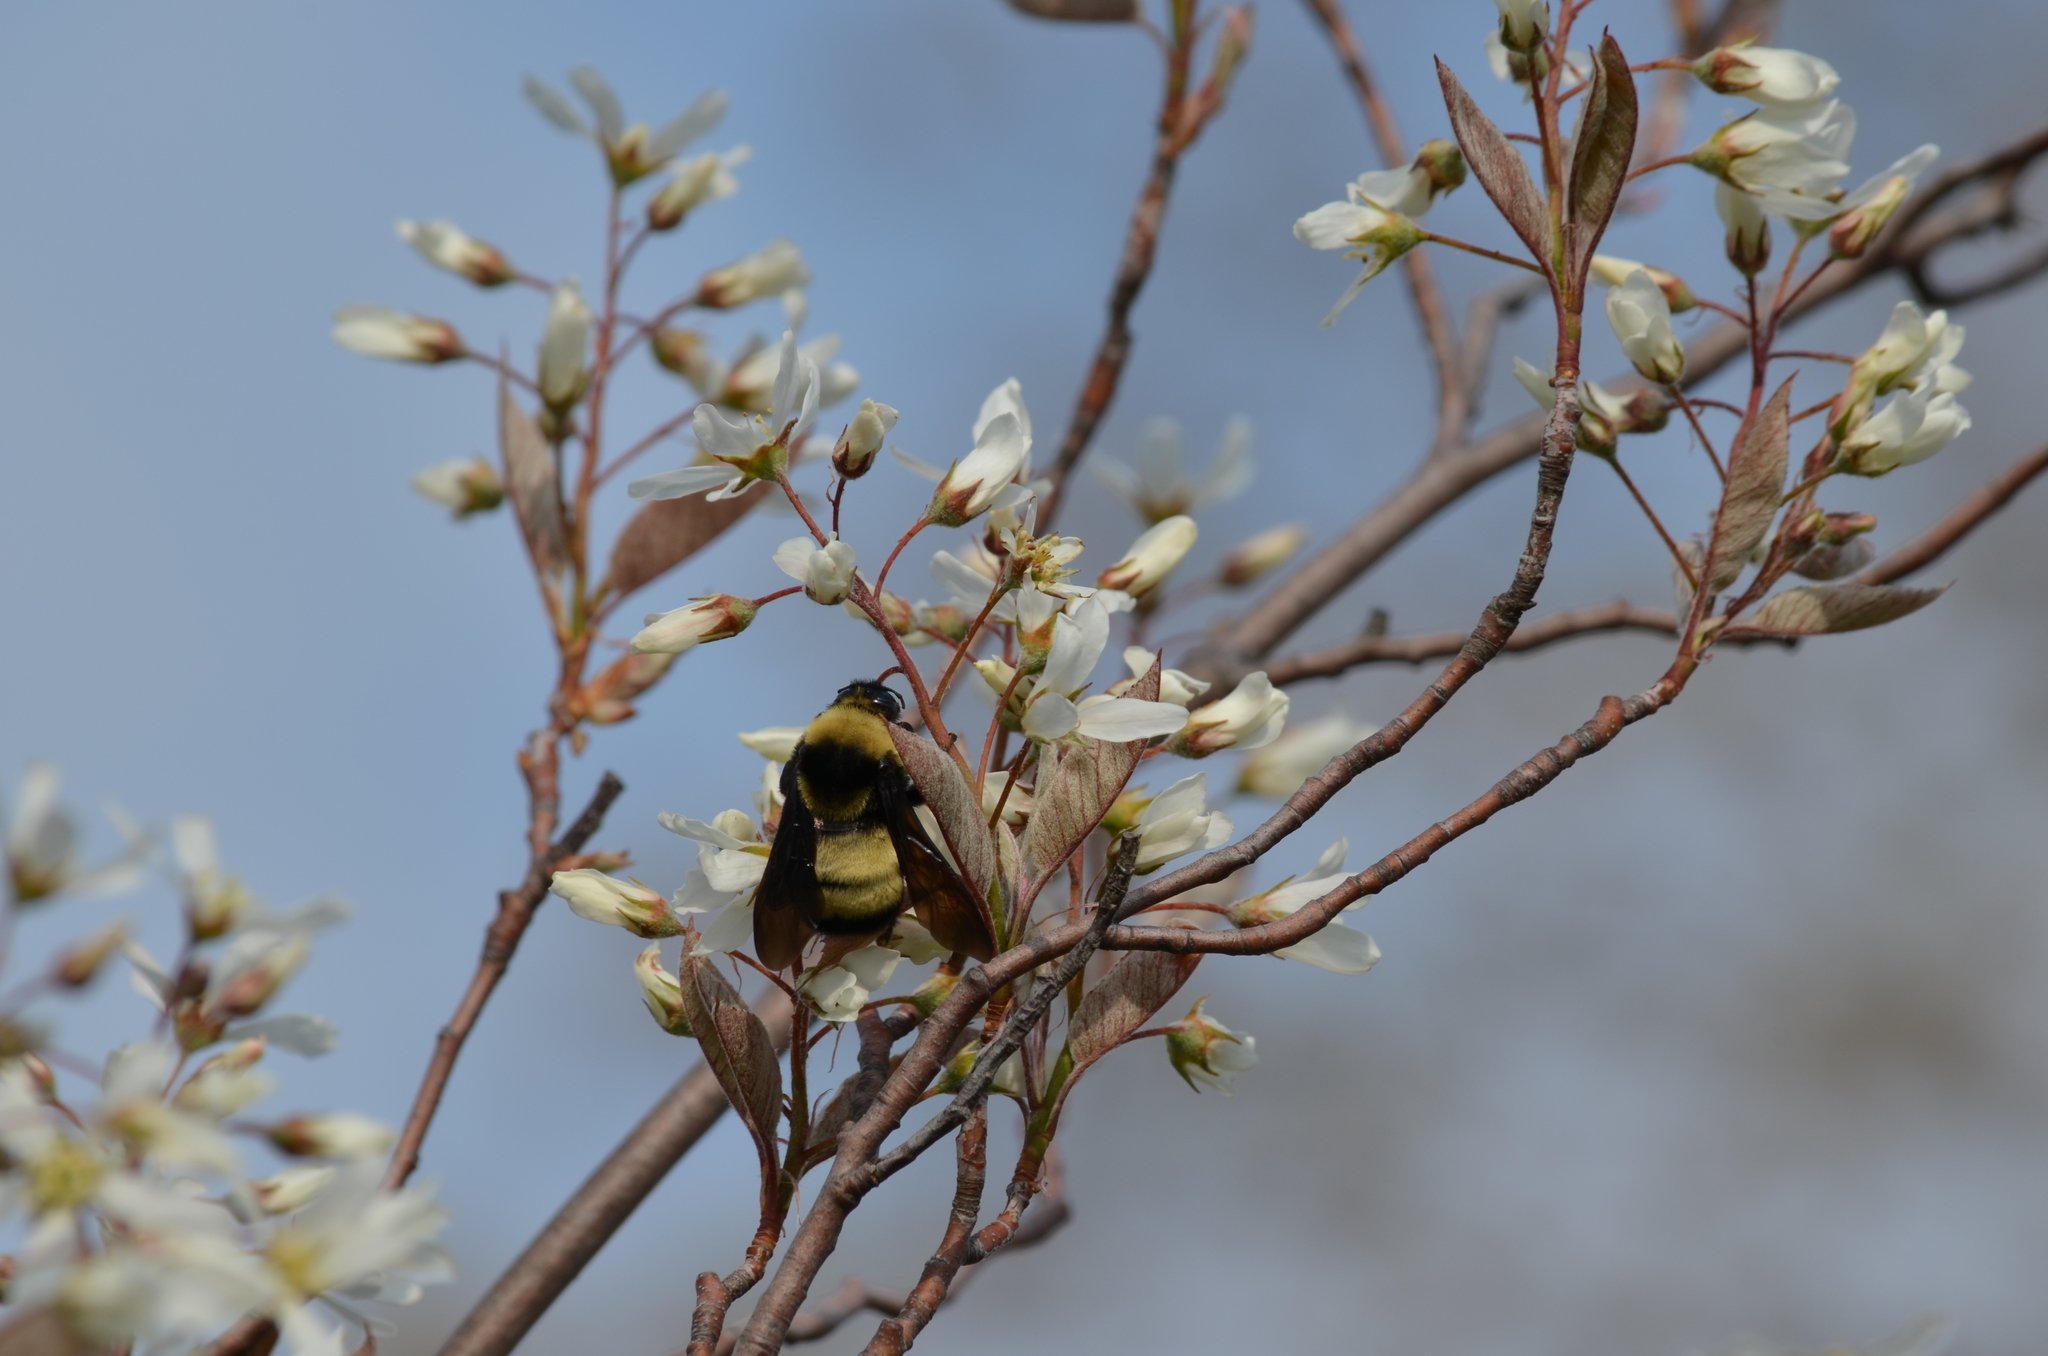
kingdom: Animalia
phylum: Arthropoda
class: Insecta
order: Hymenoptera
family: Apidae
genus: Bombus
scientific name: Bombus auricomus
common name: Black and gold bumble bee
